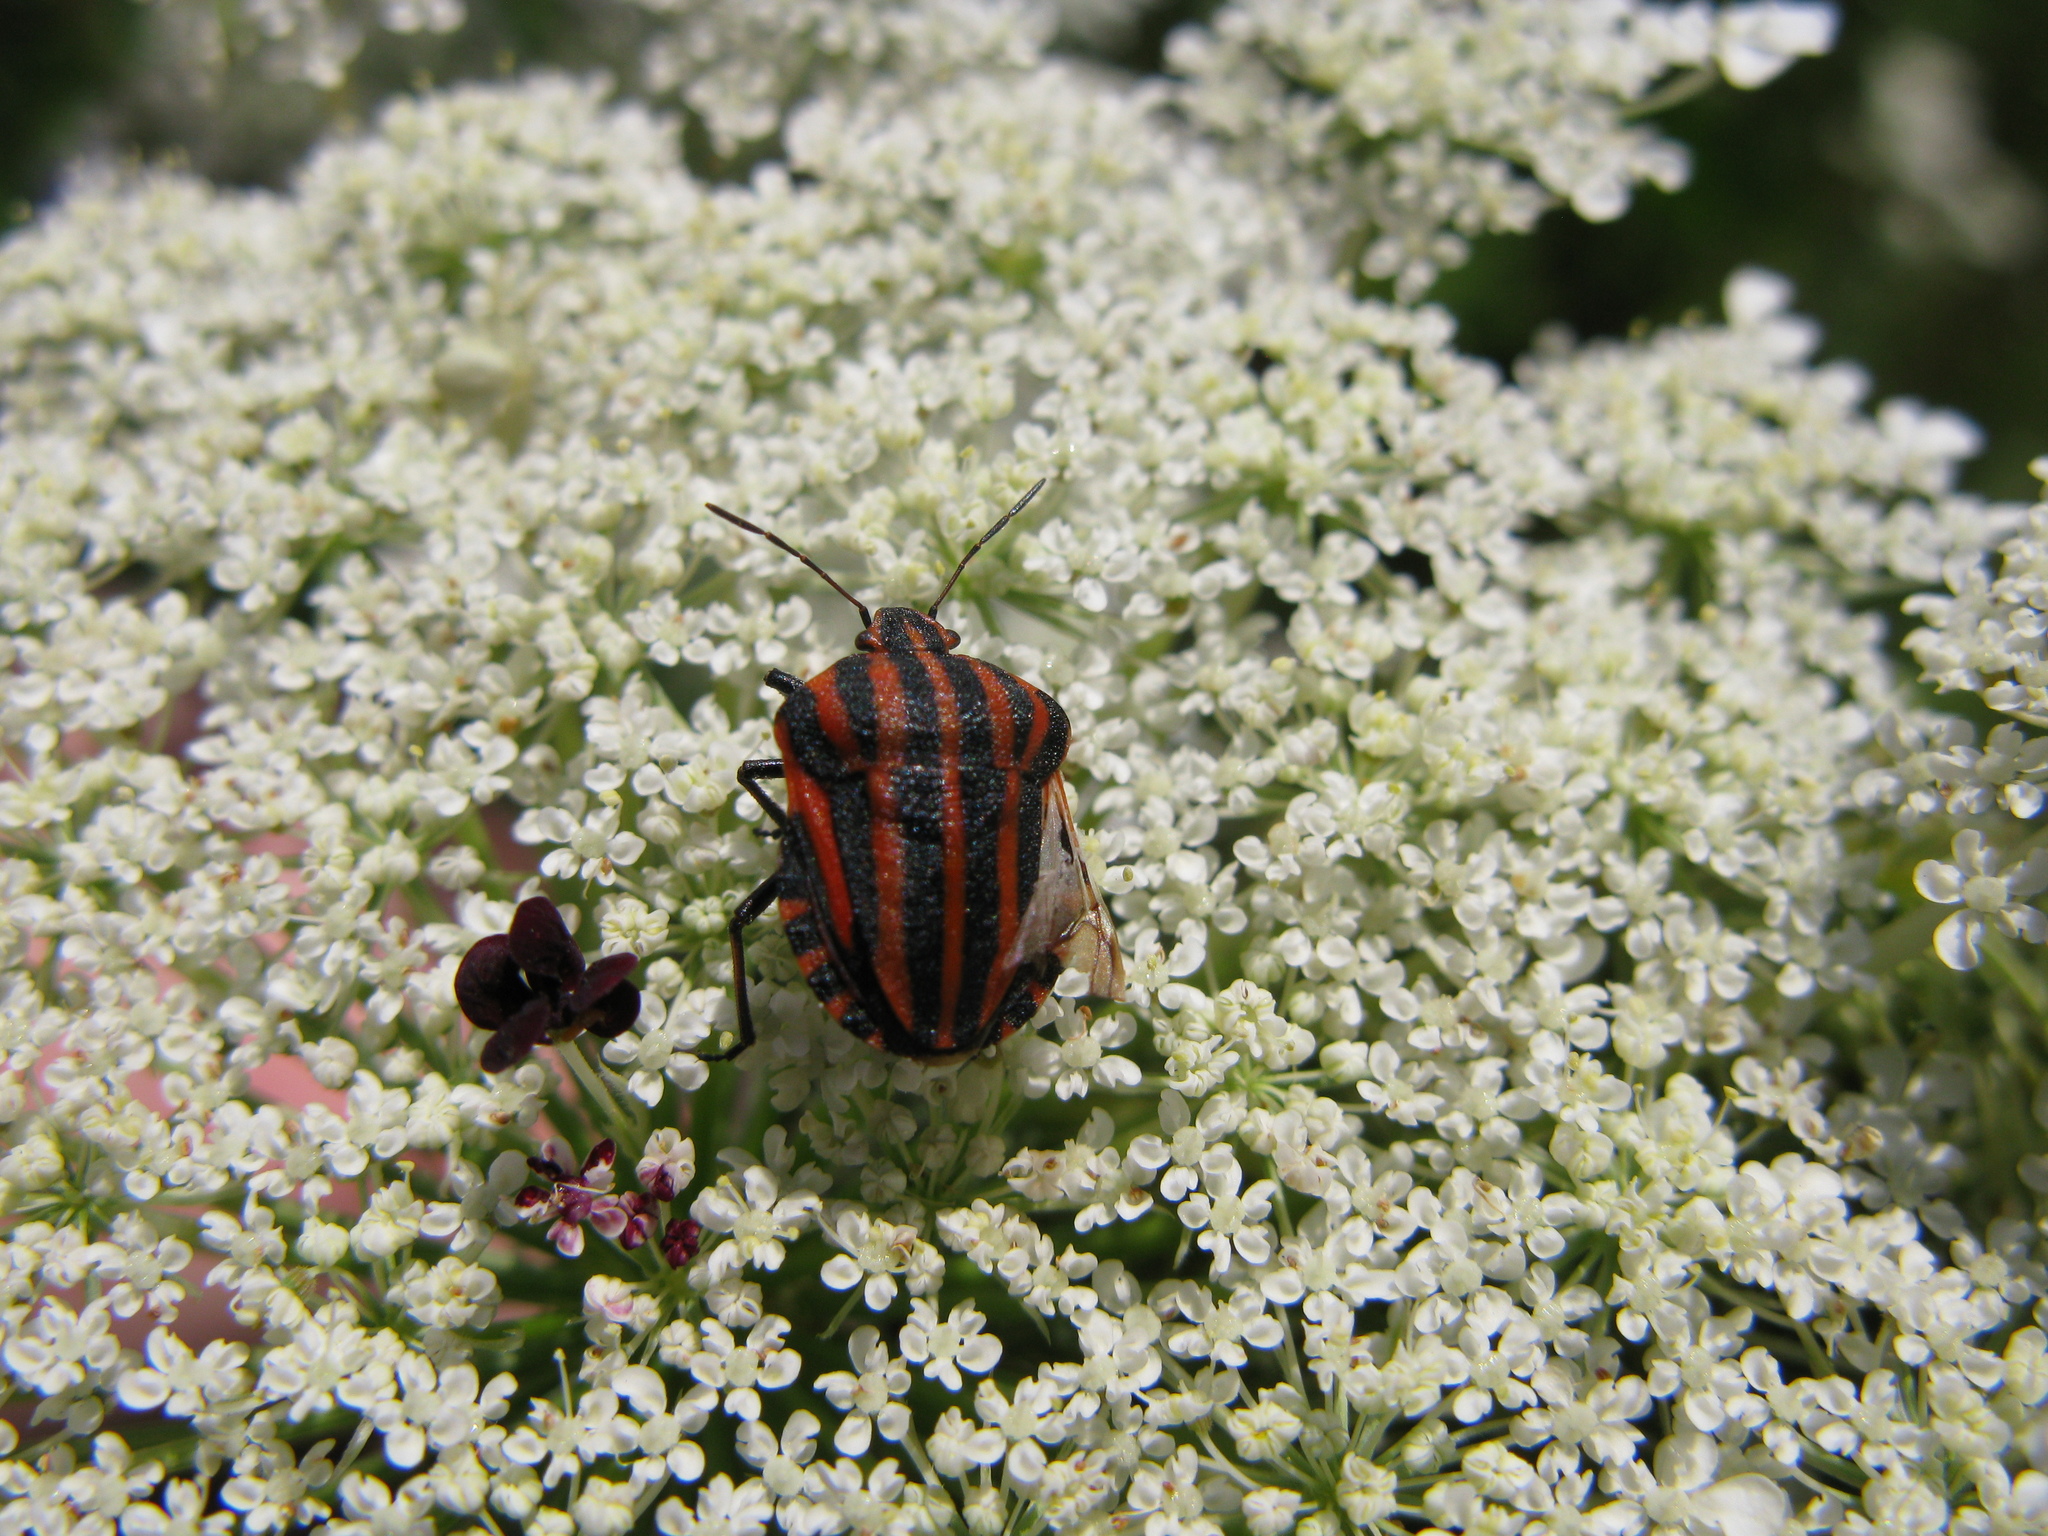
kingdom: Animalia
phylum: Arthropoda
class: Insecta
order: Hemiptera
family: Pentatomidae
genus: Graphosoma
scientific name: Graphosoma italicum
